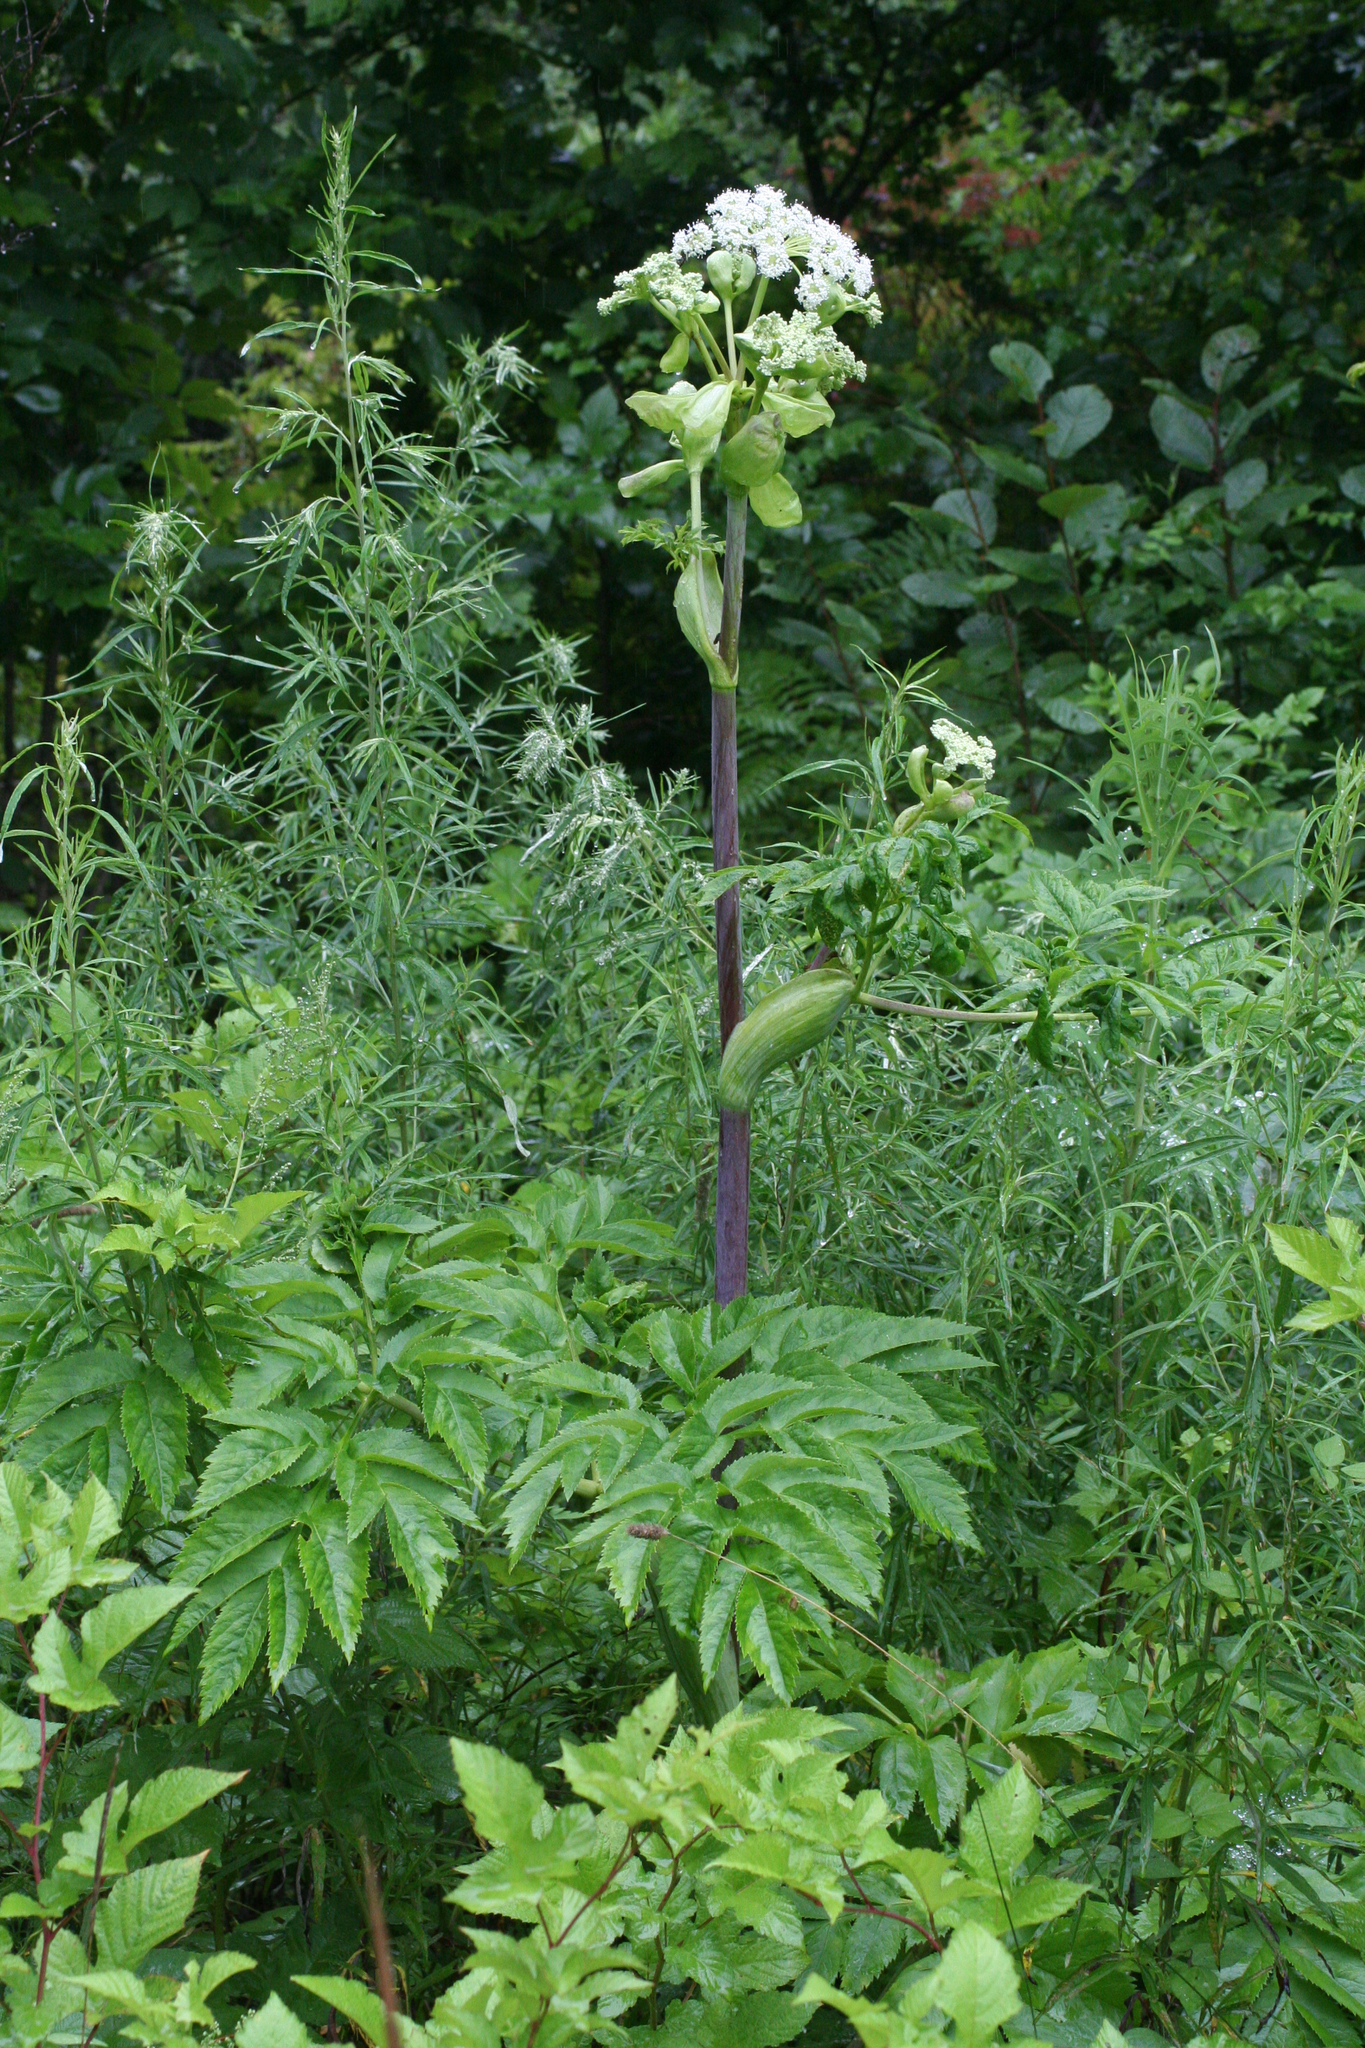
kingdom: Plantae
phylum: Tracheophyta
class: Magnoliopsida
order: Apiales
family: Apiaceae
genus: Angelica
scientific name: Angelica dahurica
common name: Dahurian angelica
